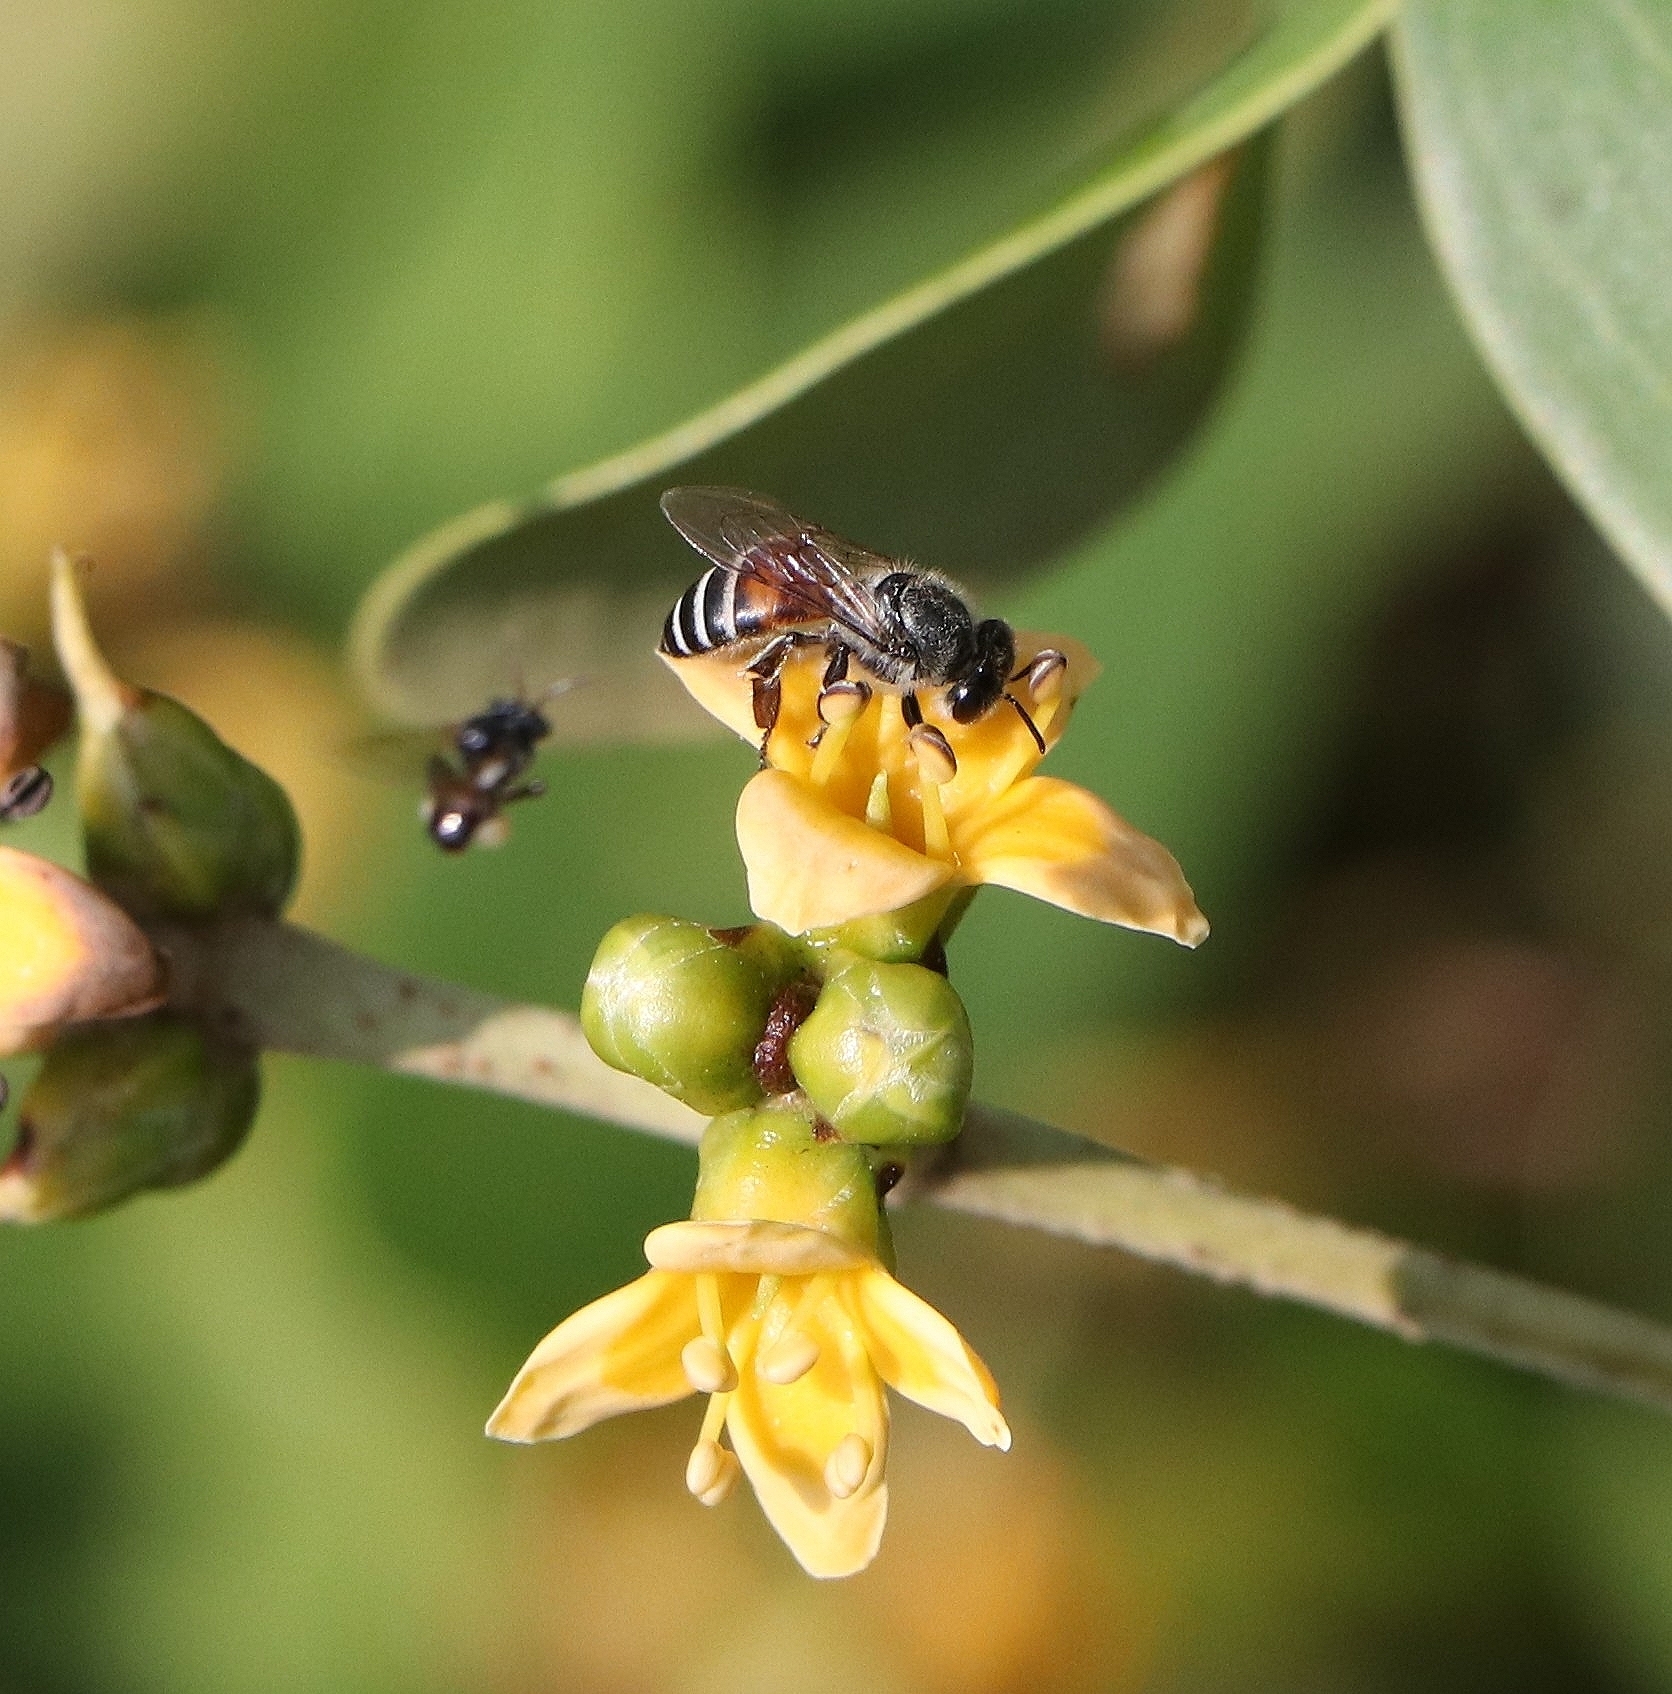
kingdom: Animalia
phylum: Arthropoda
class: Insecta
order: Hymenoptera
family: Apidae
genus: Apis
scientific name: Apis florea
